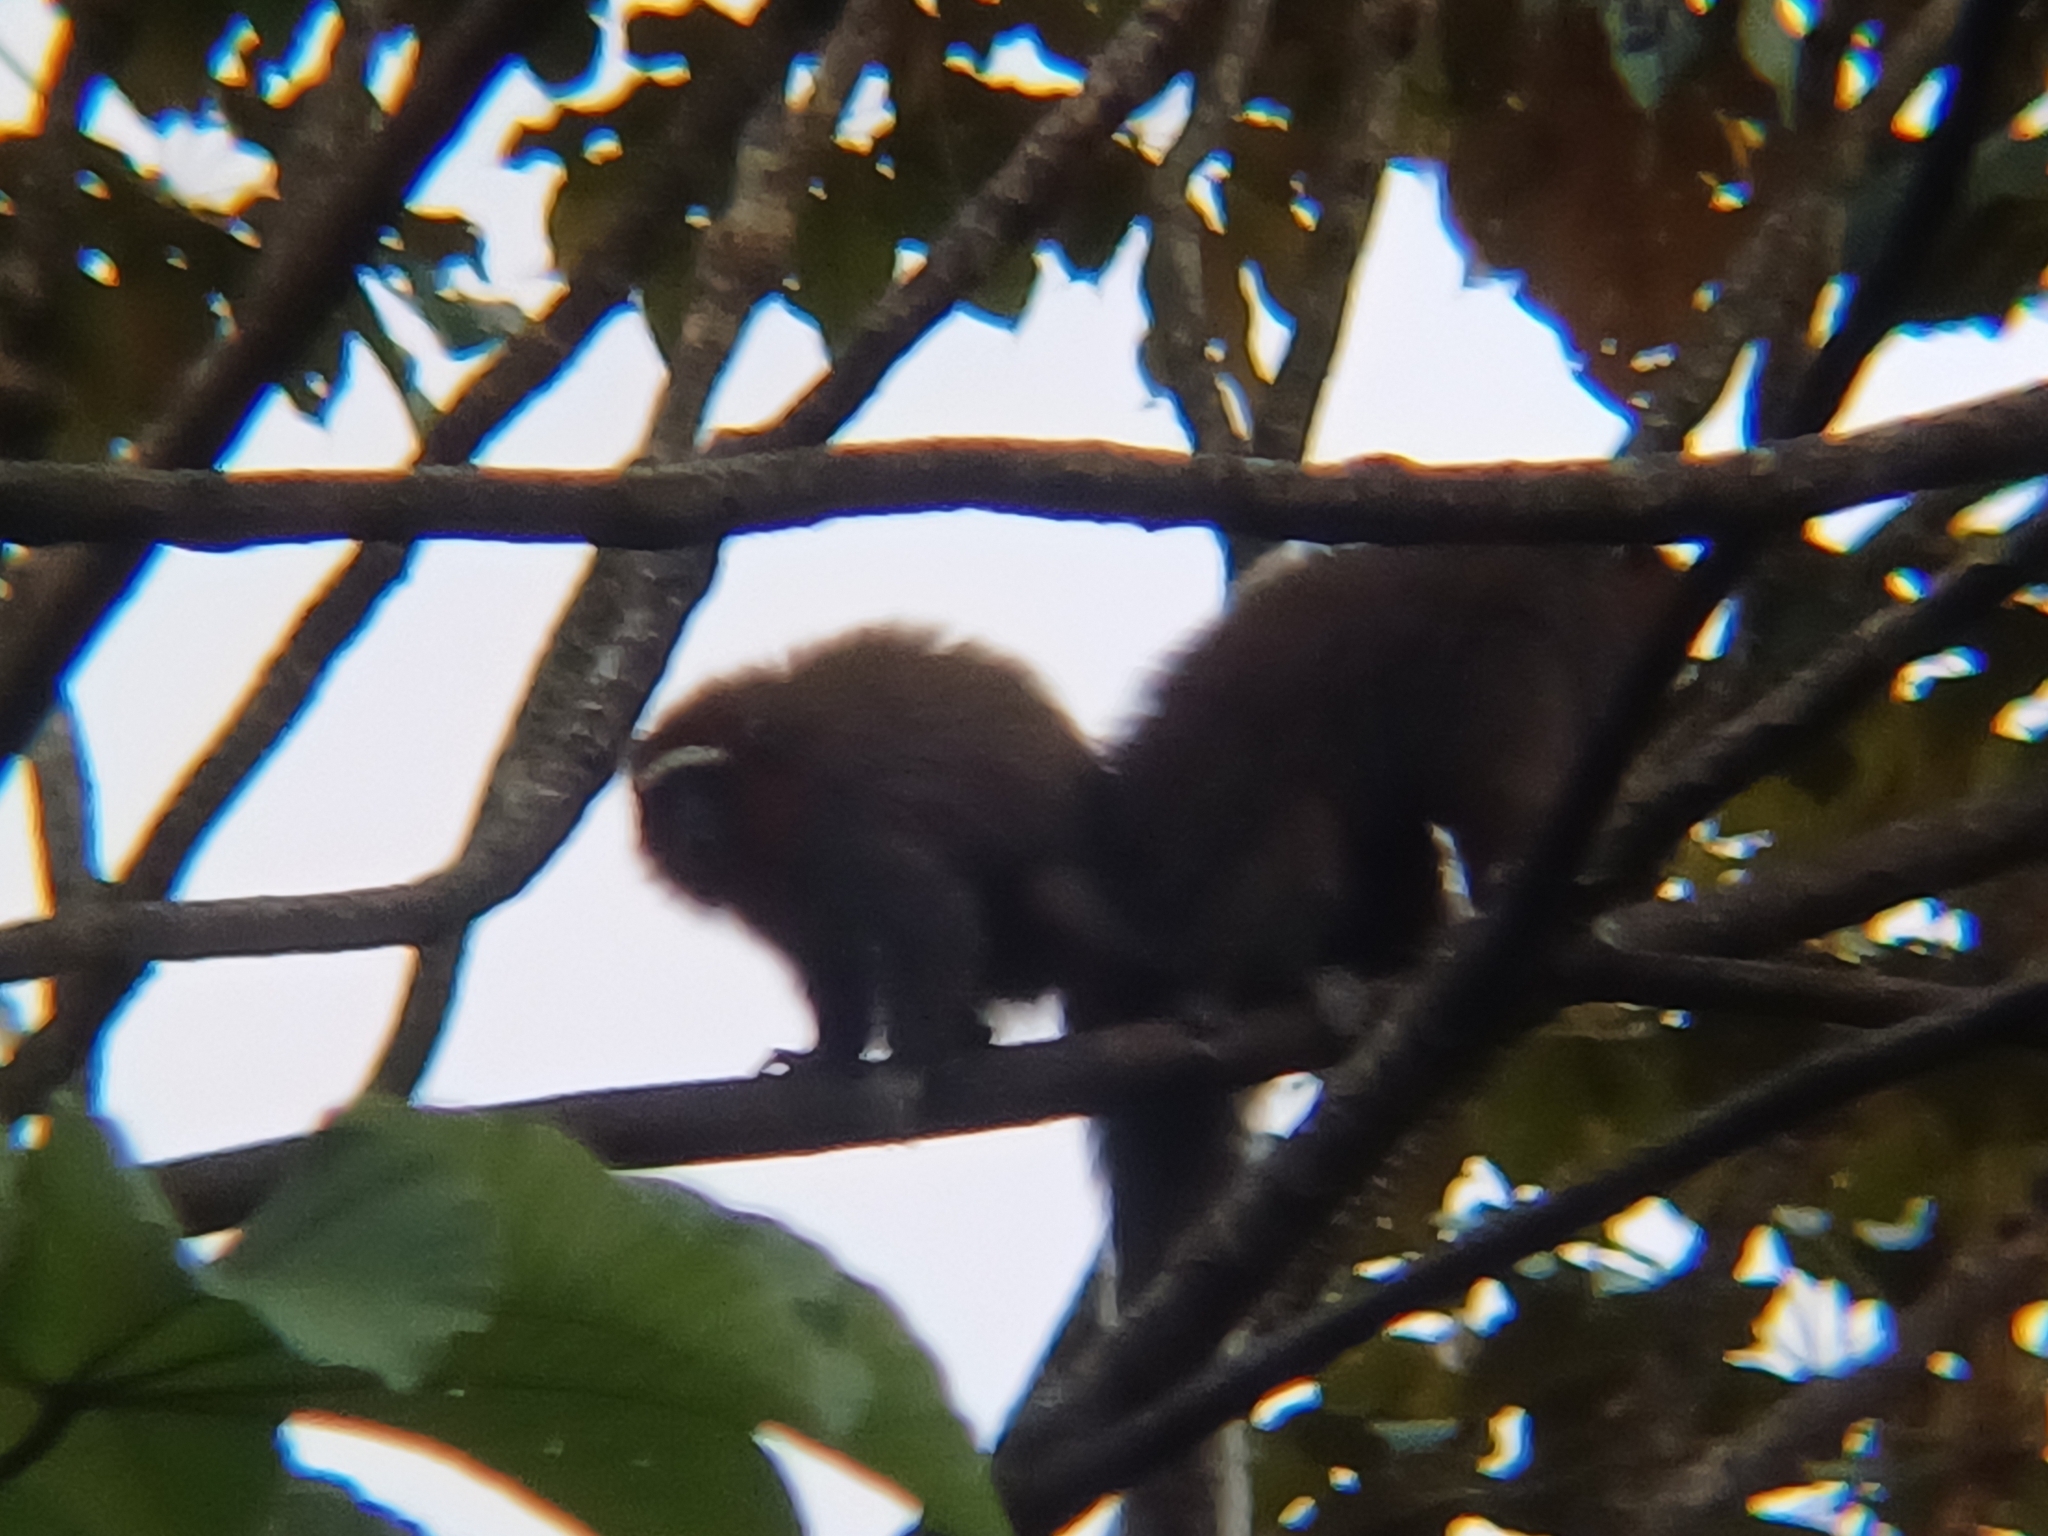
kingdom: Animalia
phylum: Chordata
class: Mammalia
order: Primates
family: Pitheciidae
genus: Plecturocebus
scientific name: Plecturocebus ornatus
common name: Ornate titi
